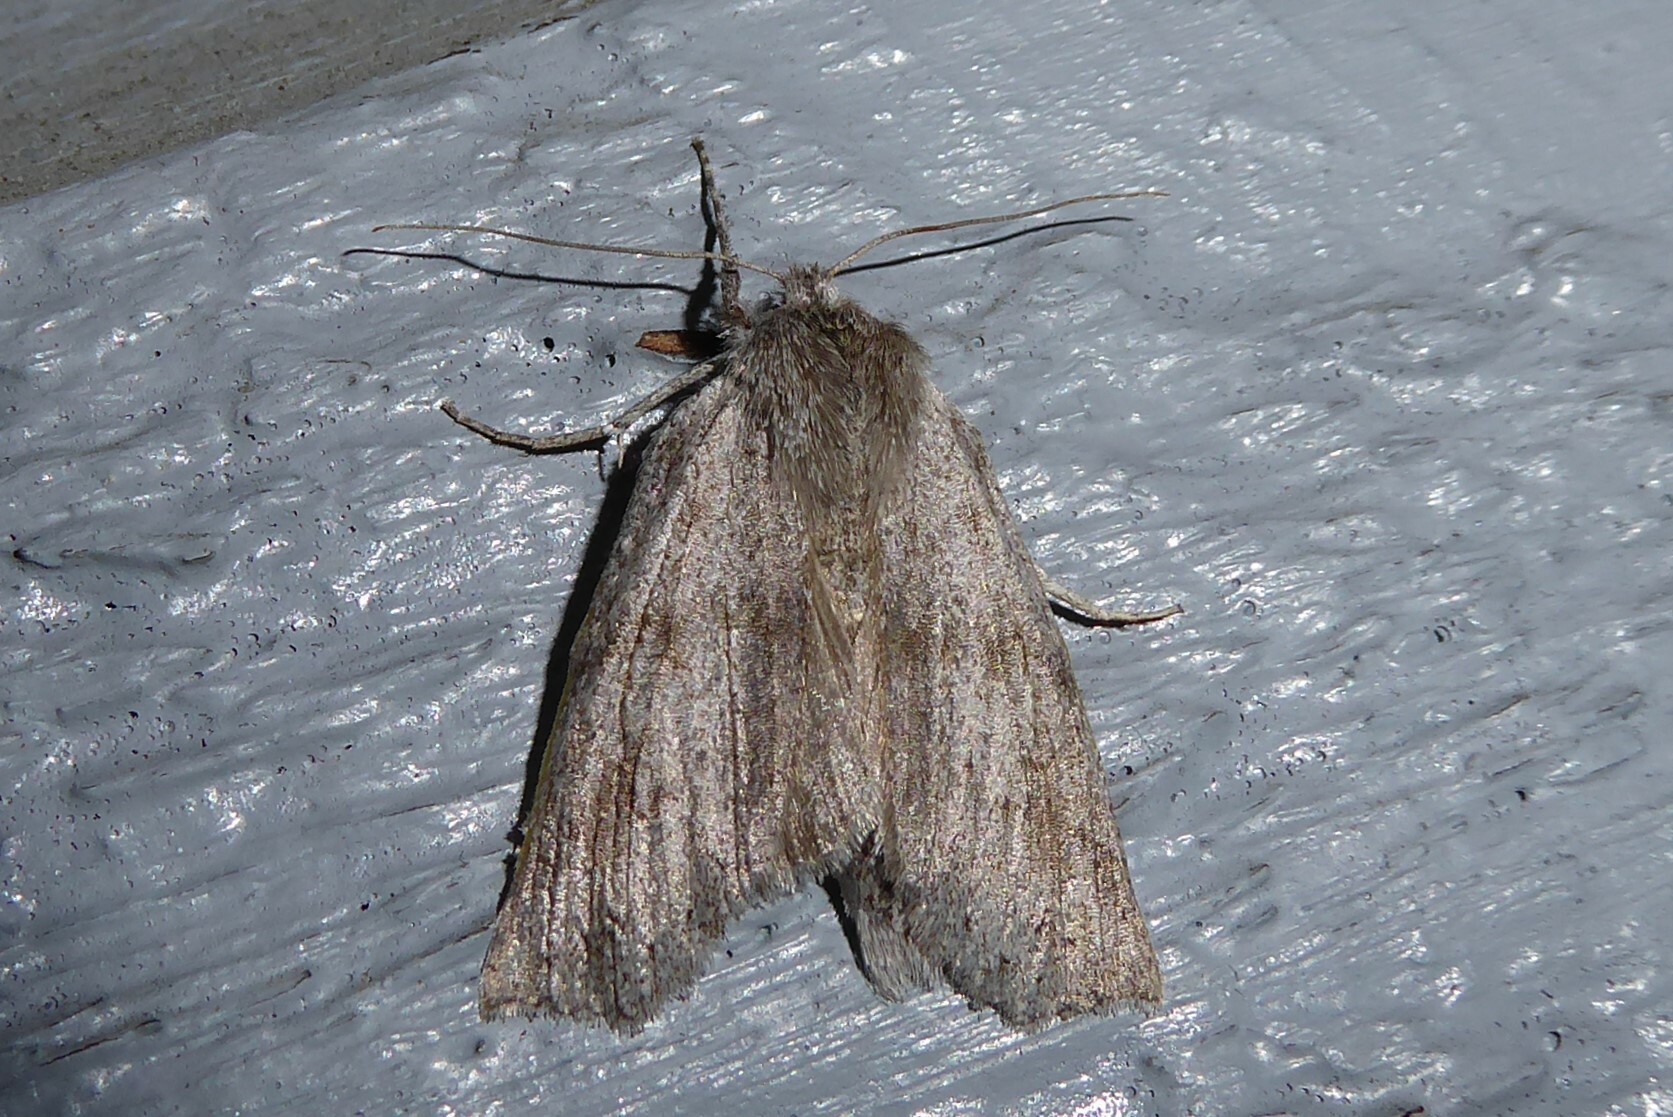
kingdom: Animalia
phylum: Arthropoda
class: Insecta
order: Lepidoptera
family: Geometridae
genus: Declana
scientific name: Declana leptomera
